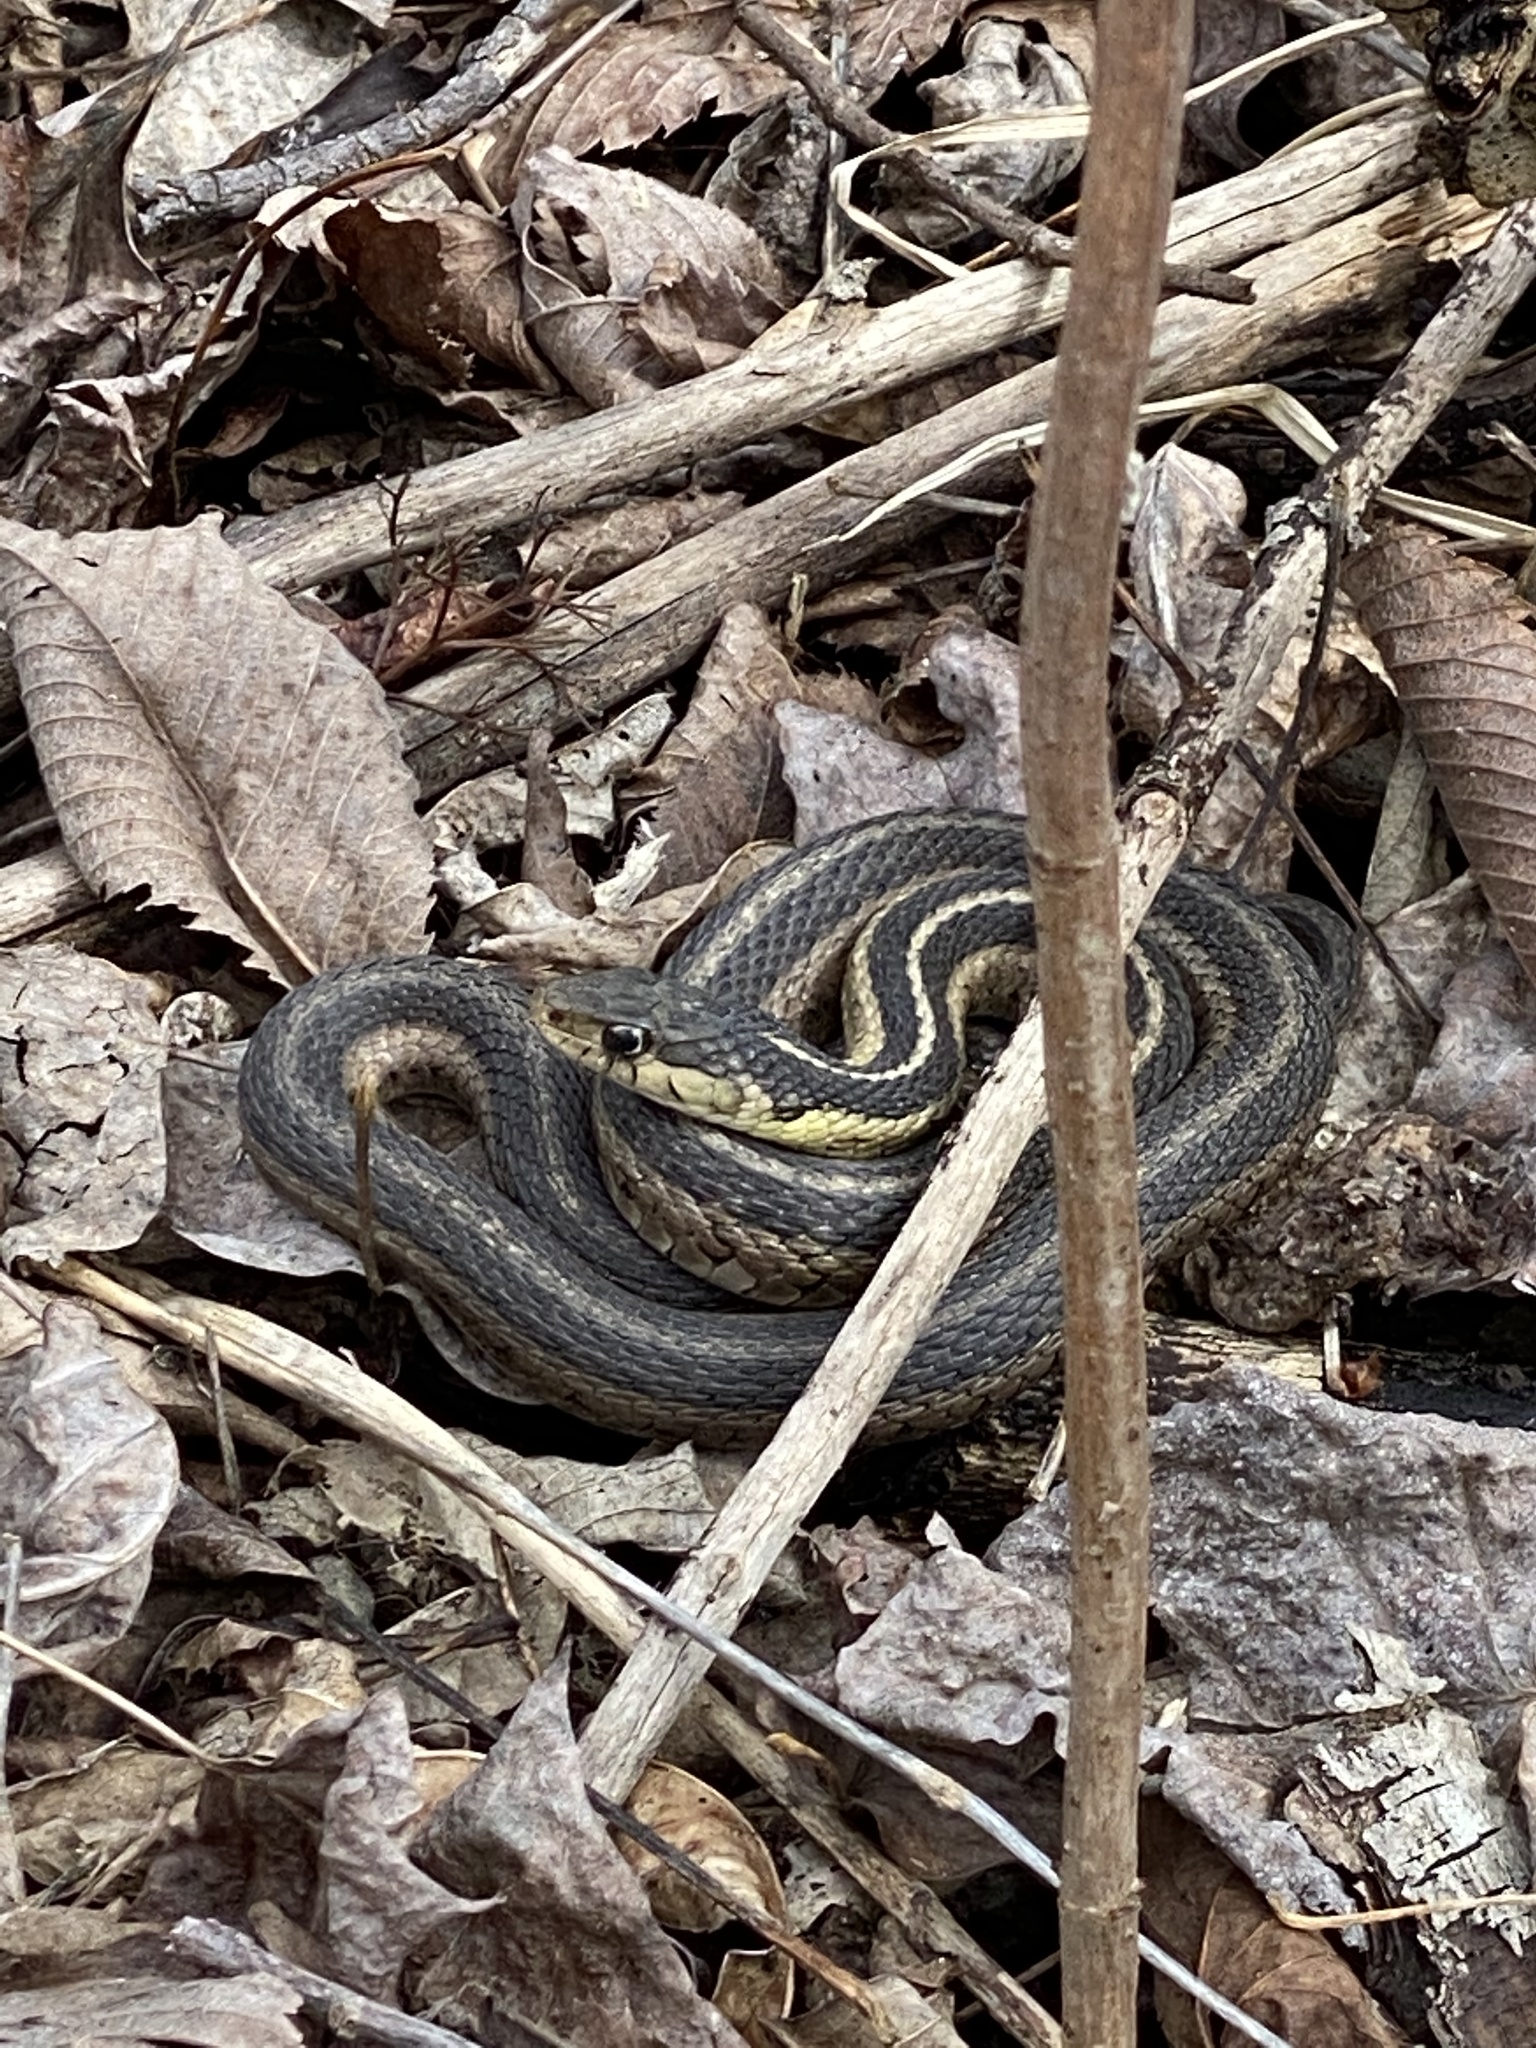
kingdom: Animalia
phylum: Chordata
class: Squamata
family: Colubridae
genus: Thamnophis
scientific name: Thamnophis sirtalis
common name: Common garter snake
